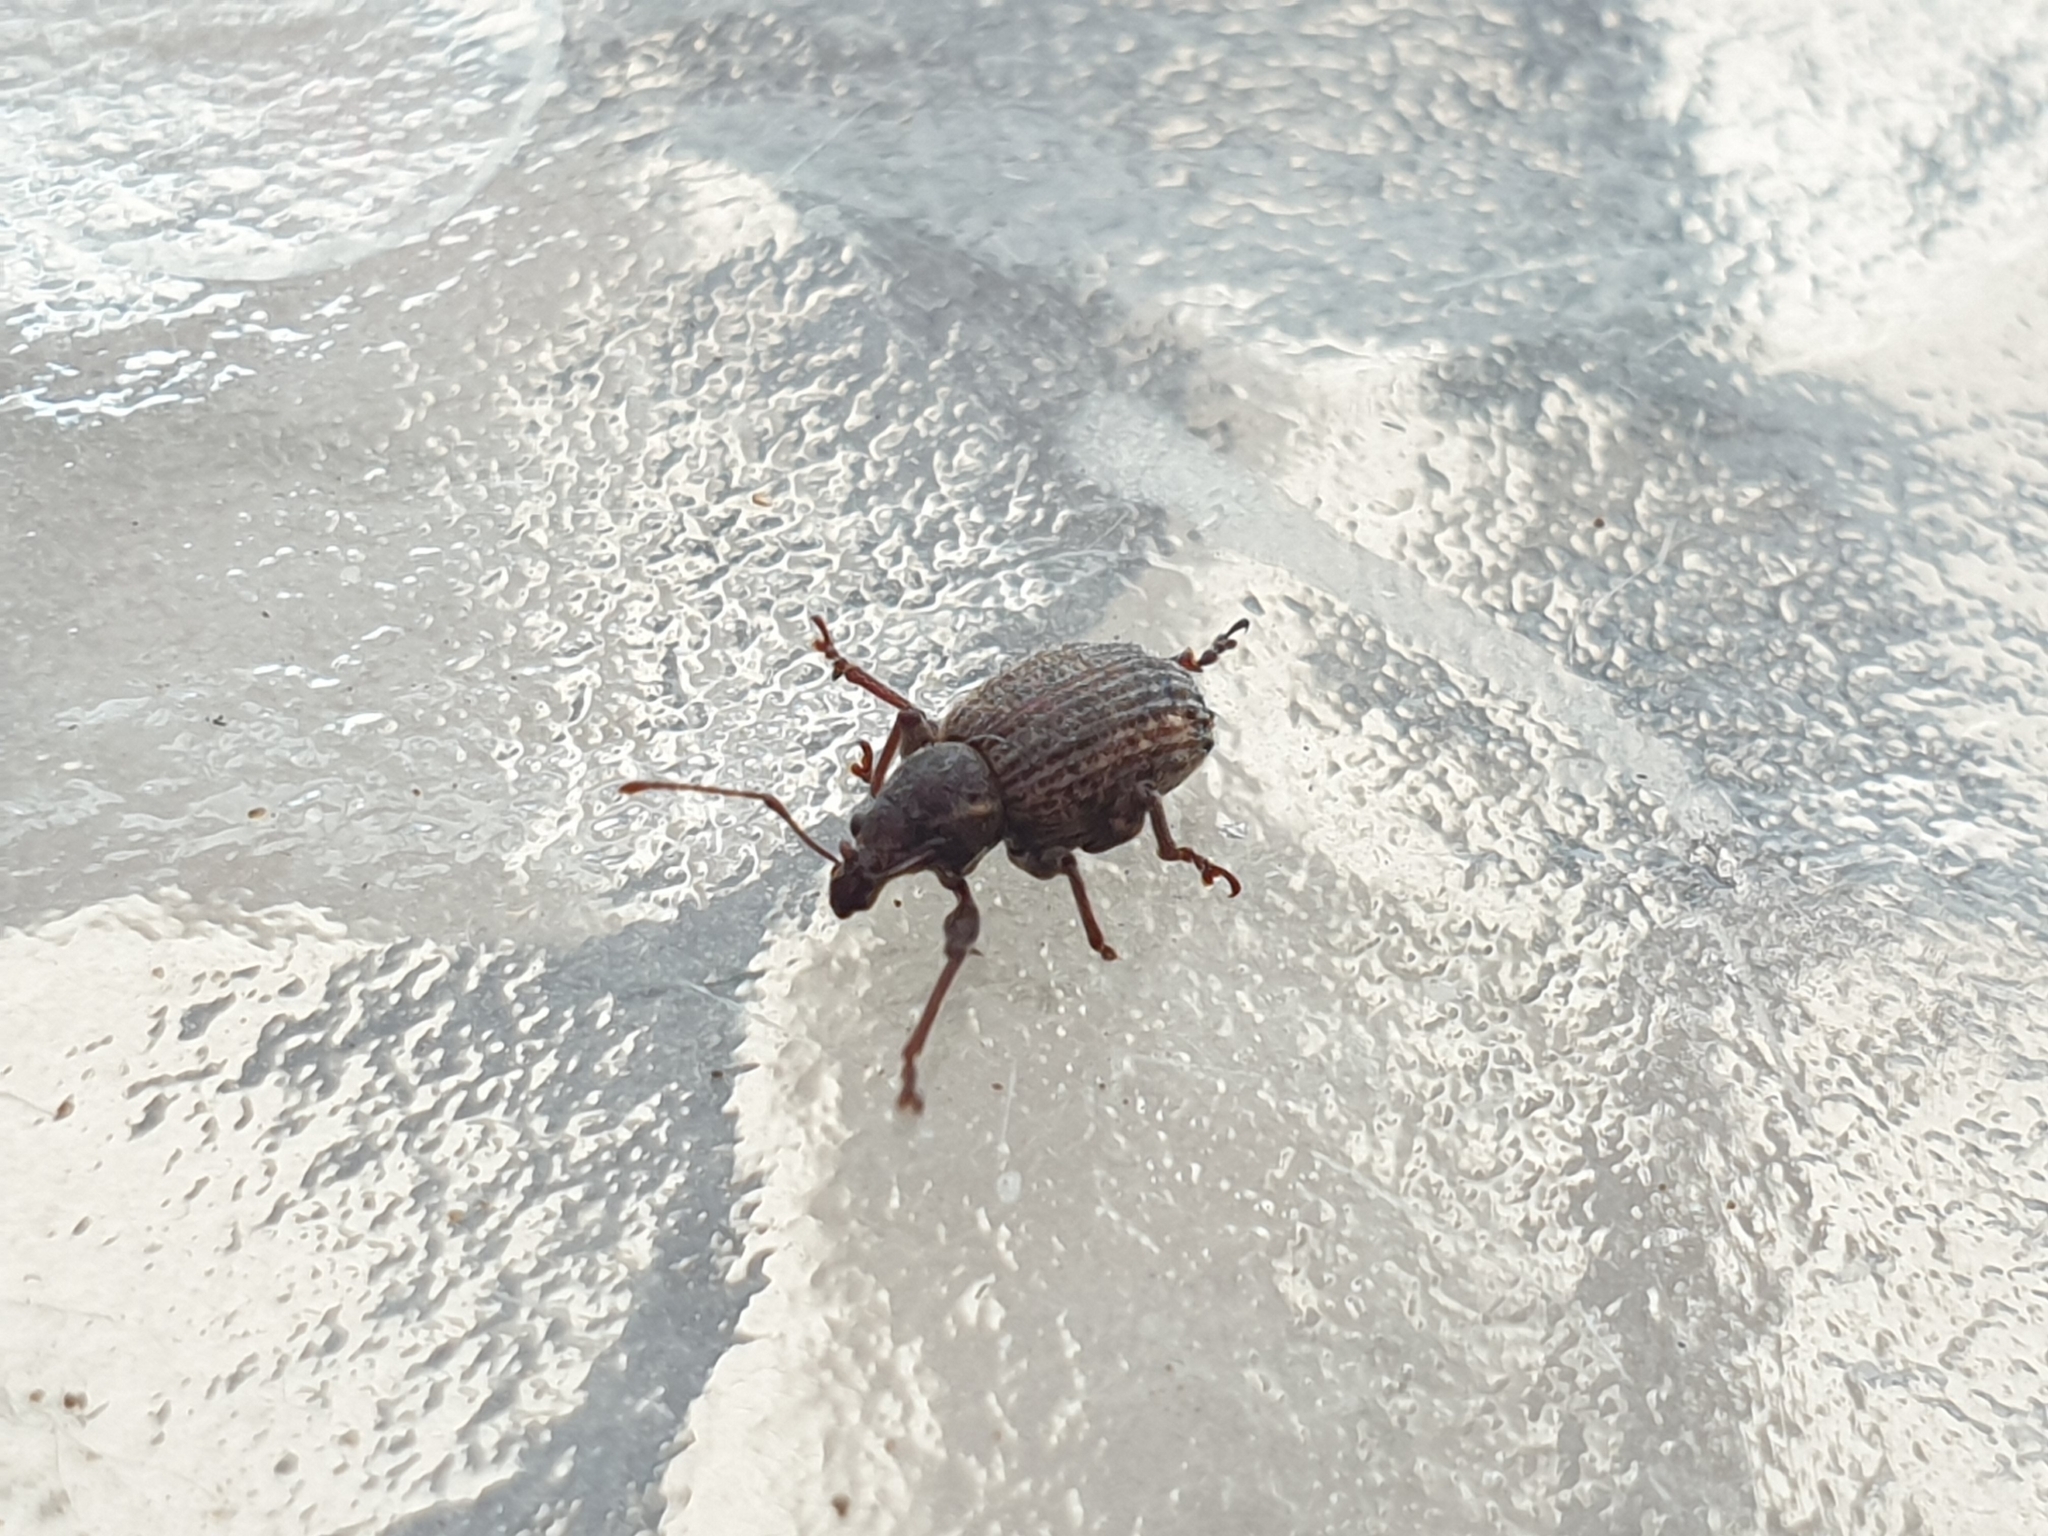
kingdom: Animalia
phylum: Arthropoda
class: Insecta
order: Coleoptera
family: Curculionidae
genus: Phlyctinus
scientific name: Phlyctinus callosus
